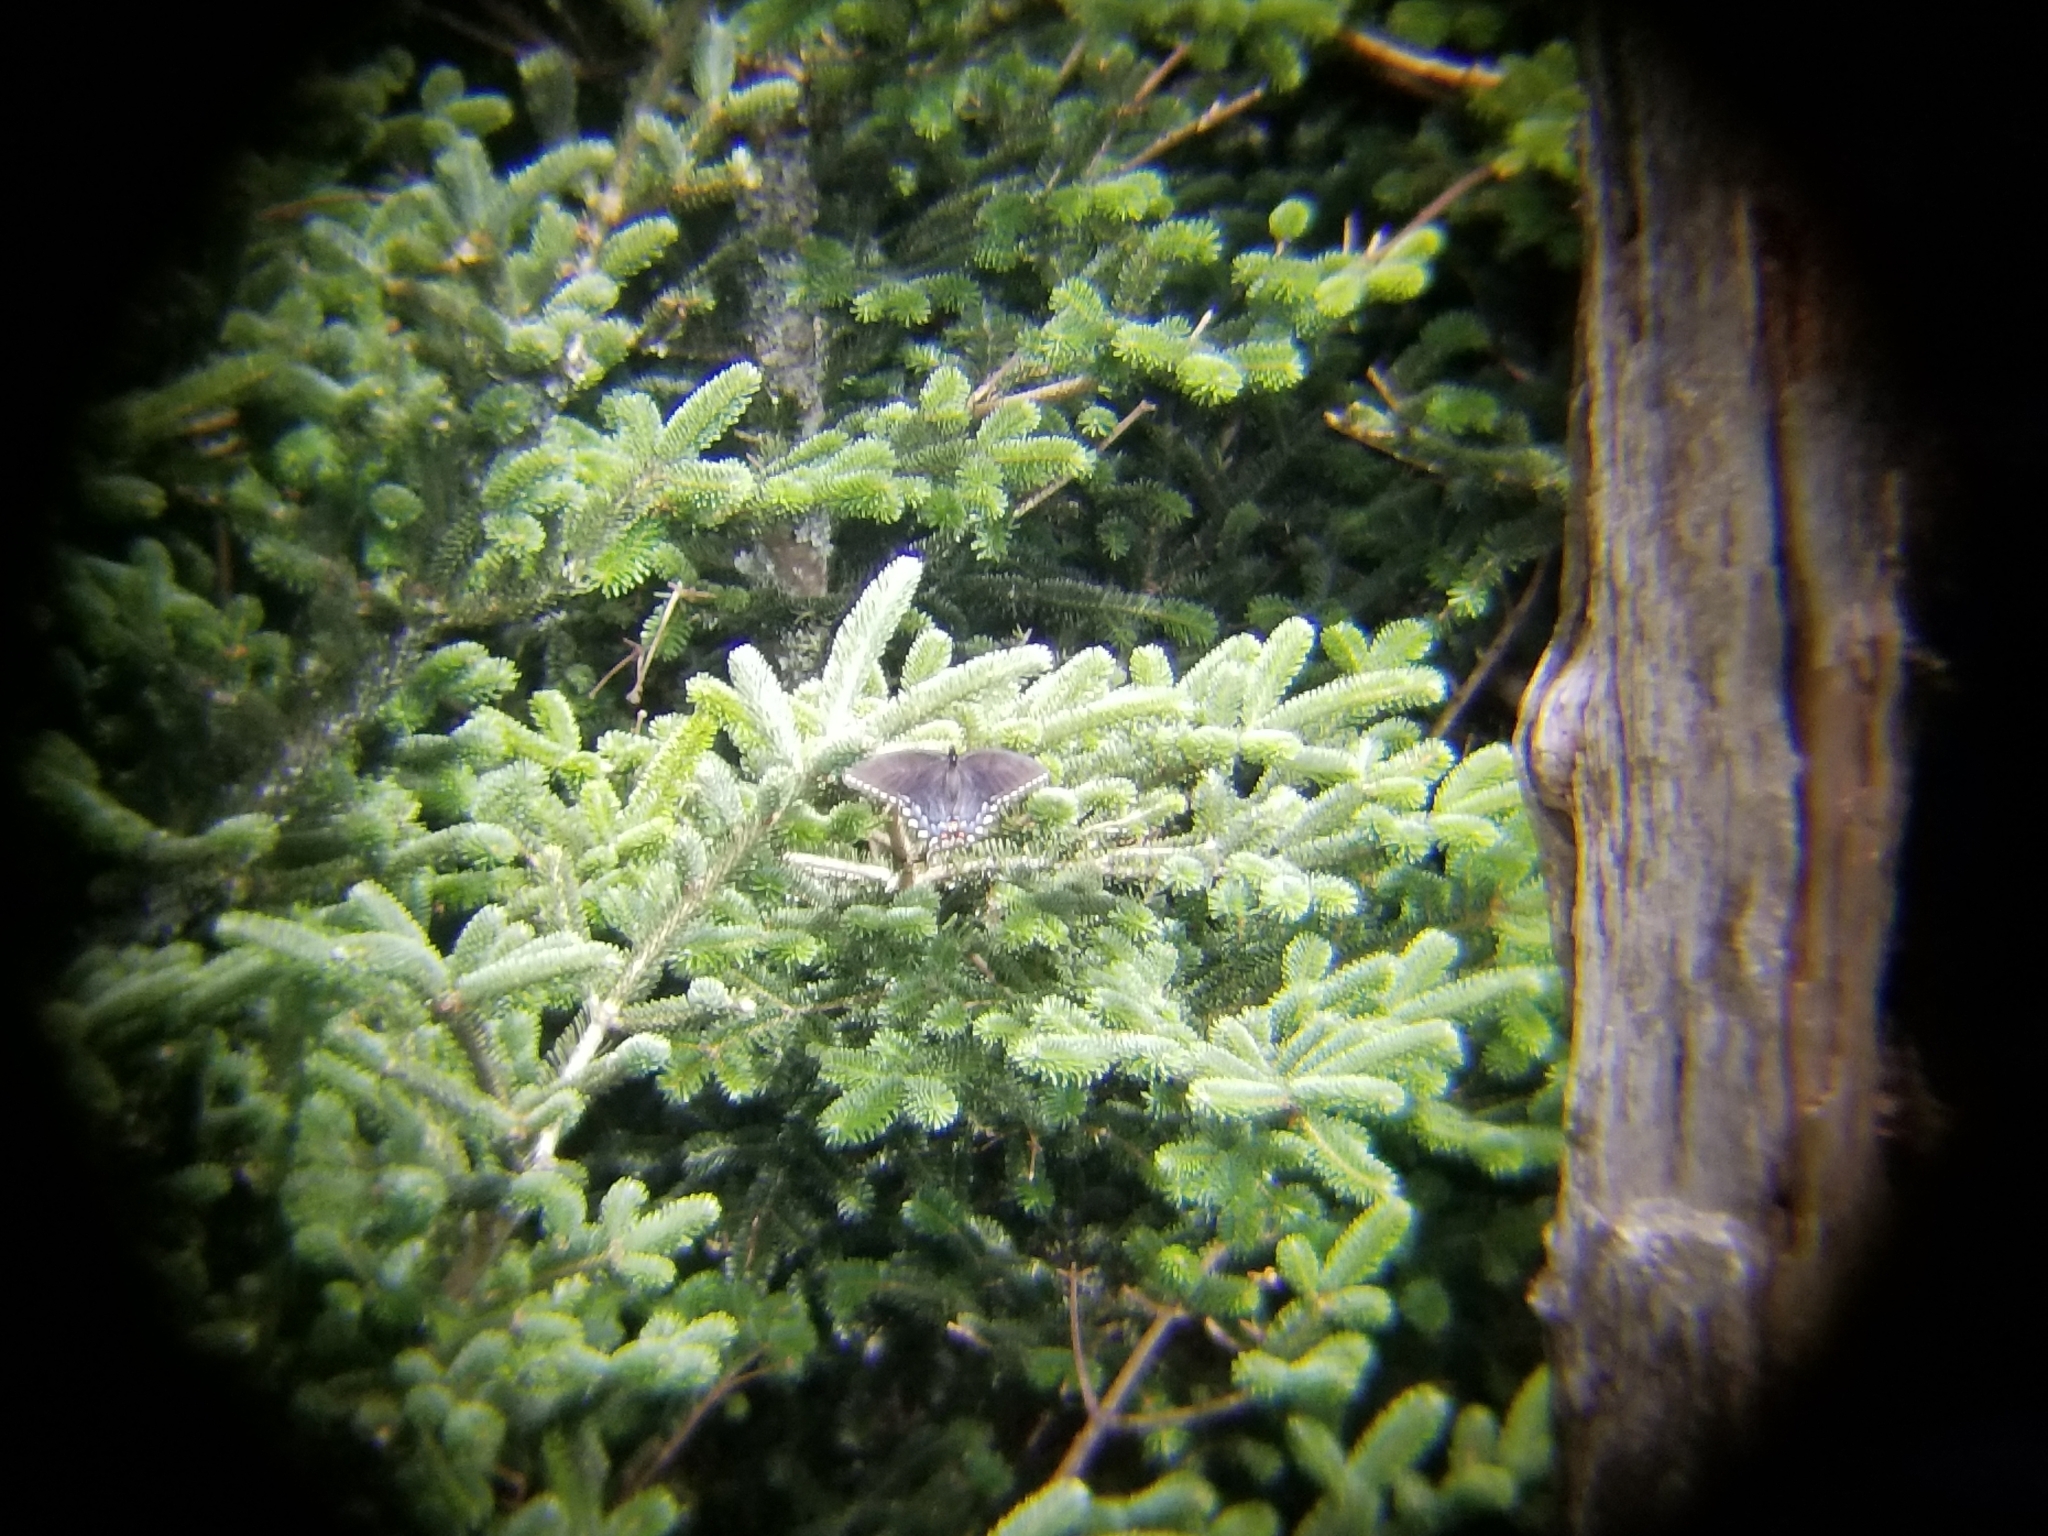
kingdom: Animalia
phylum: Arthropoda
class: Insecta
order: Lepidoptera
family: Papilionidae
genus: Papilio
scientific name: Papilio glaucus
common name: Tiger swallowtail
